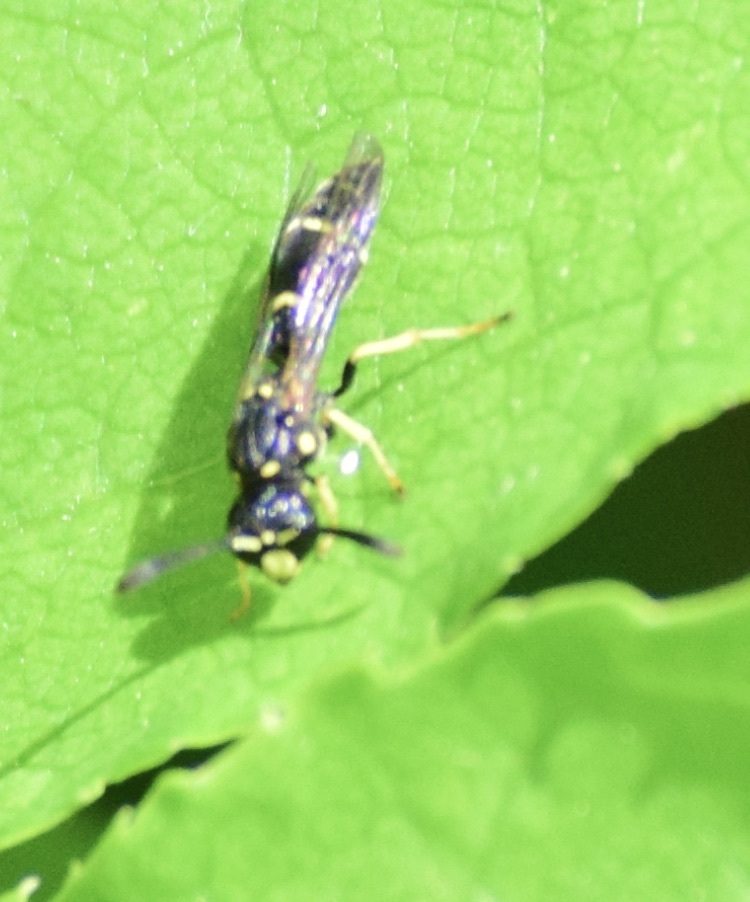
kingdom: Animalia
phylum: Arthropoda
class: Insecta
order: Hymenoptera
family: Eumenidae
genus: Symmorphus
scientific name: Symmorphus
